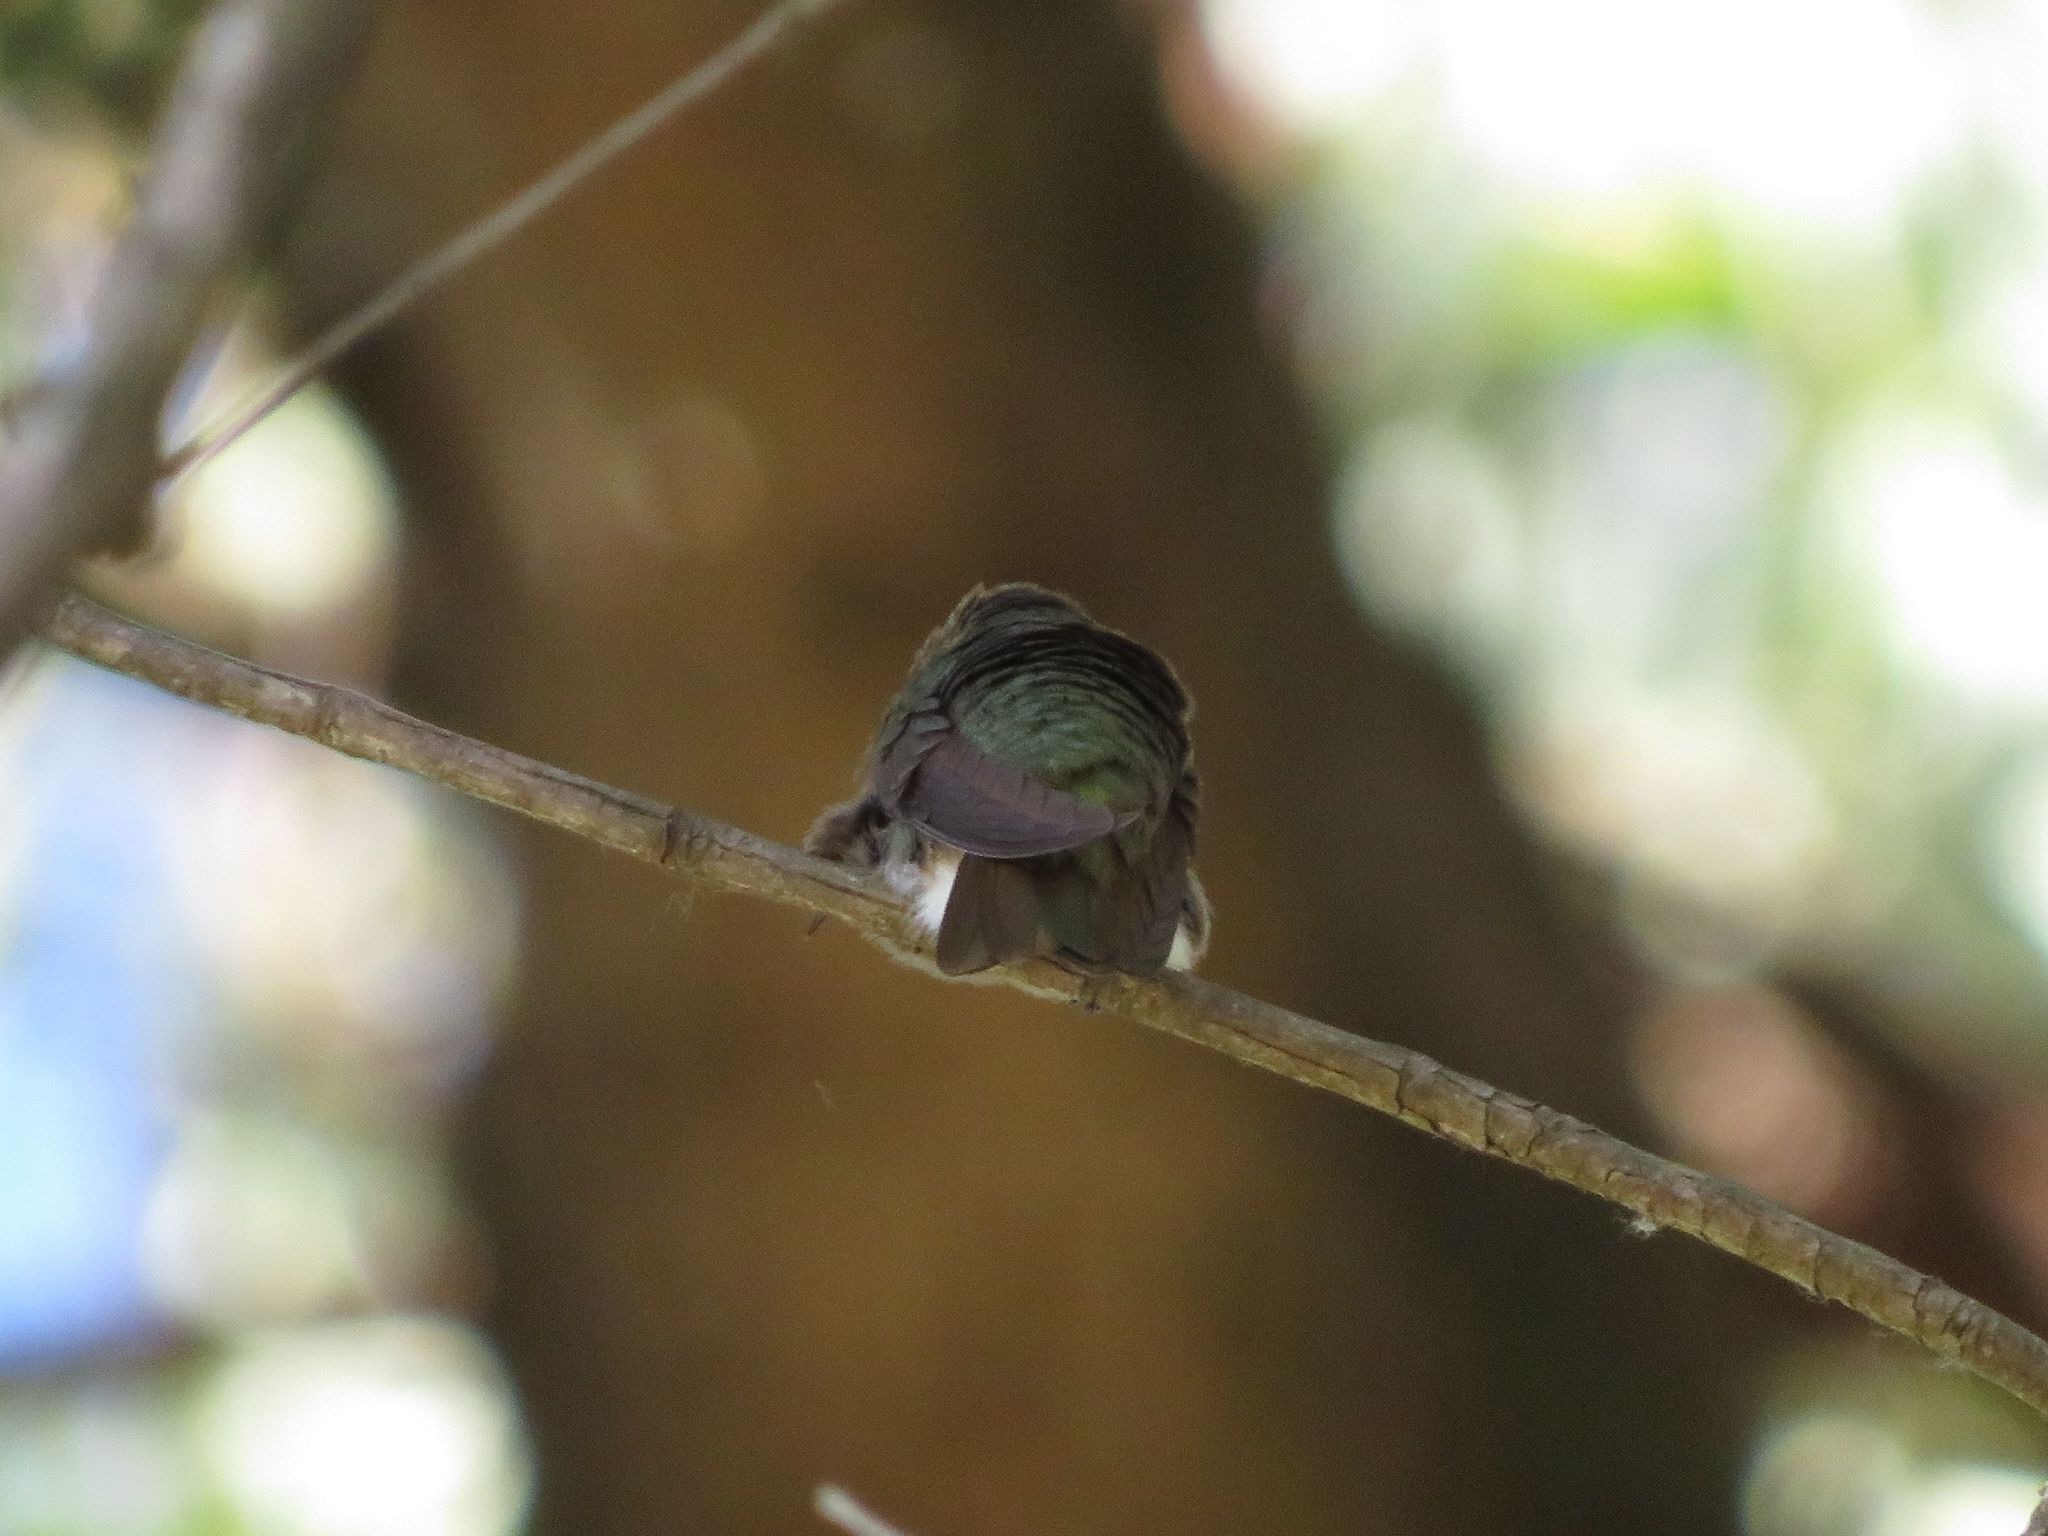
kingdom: Animalia
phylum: Chordata
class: Aves
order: Apodiformes
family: Trochilidae
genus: Leucochloris
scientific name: Leucochloris albicollis
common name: White-throated hummingbird
